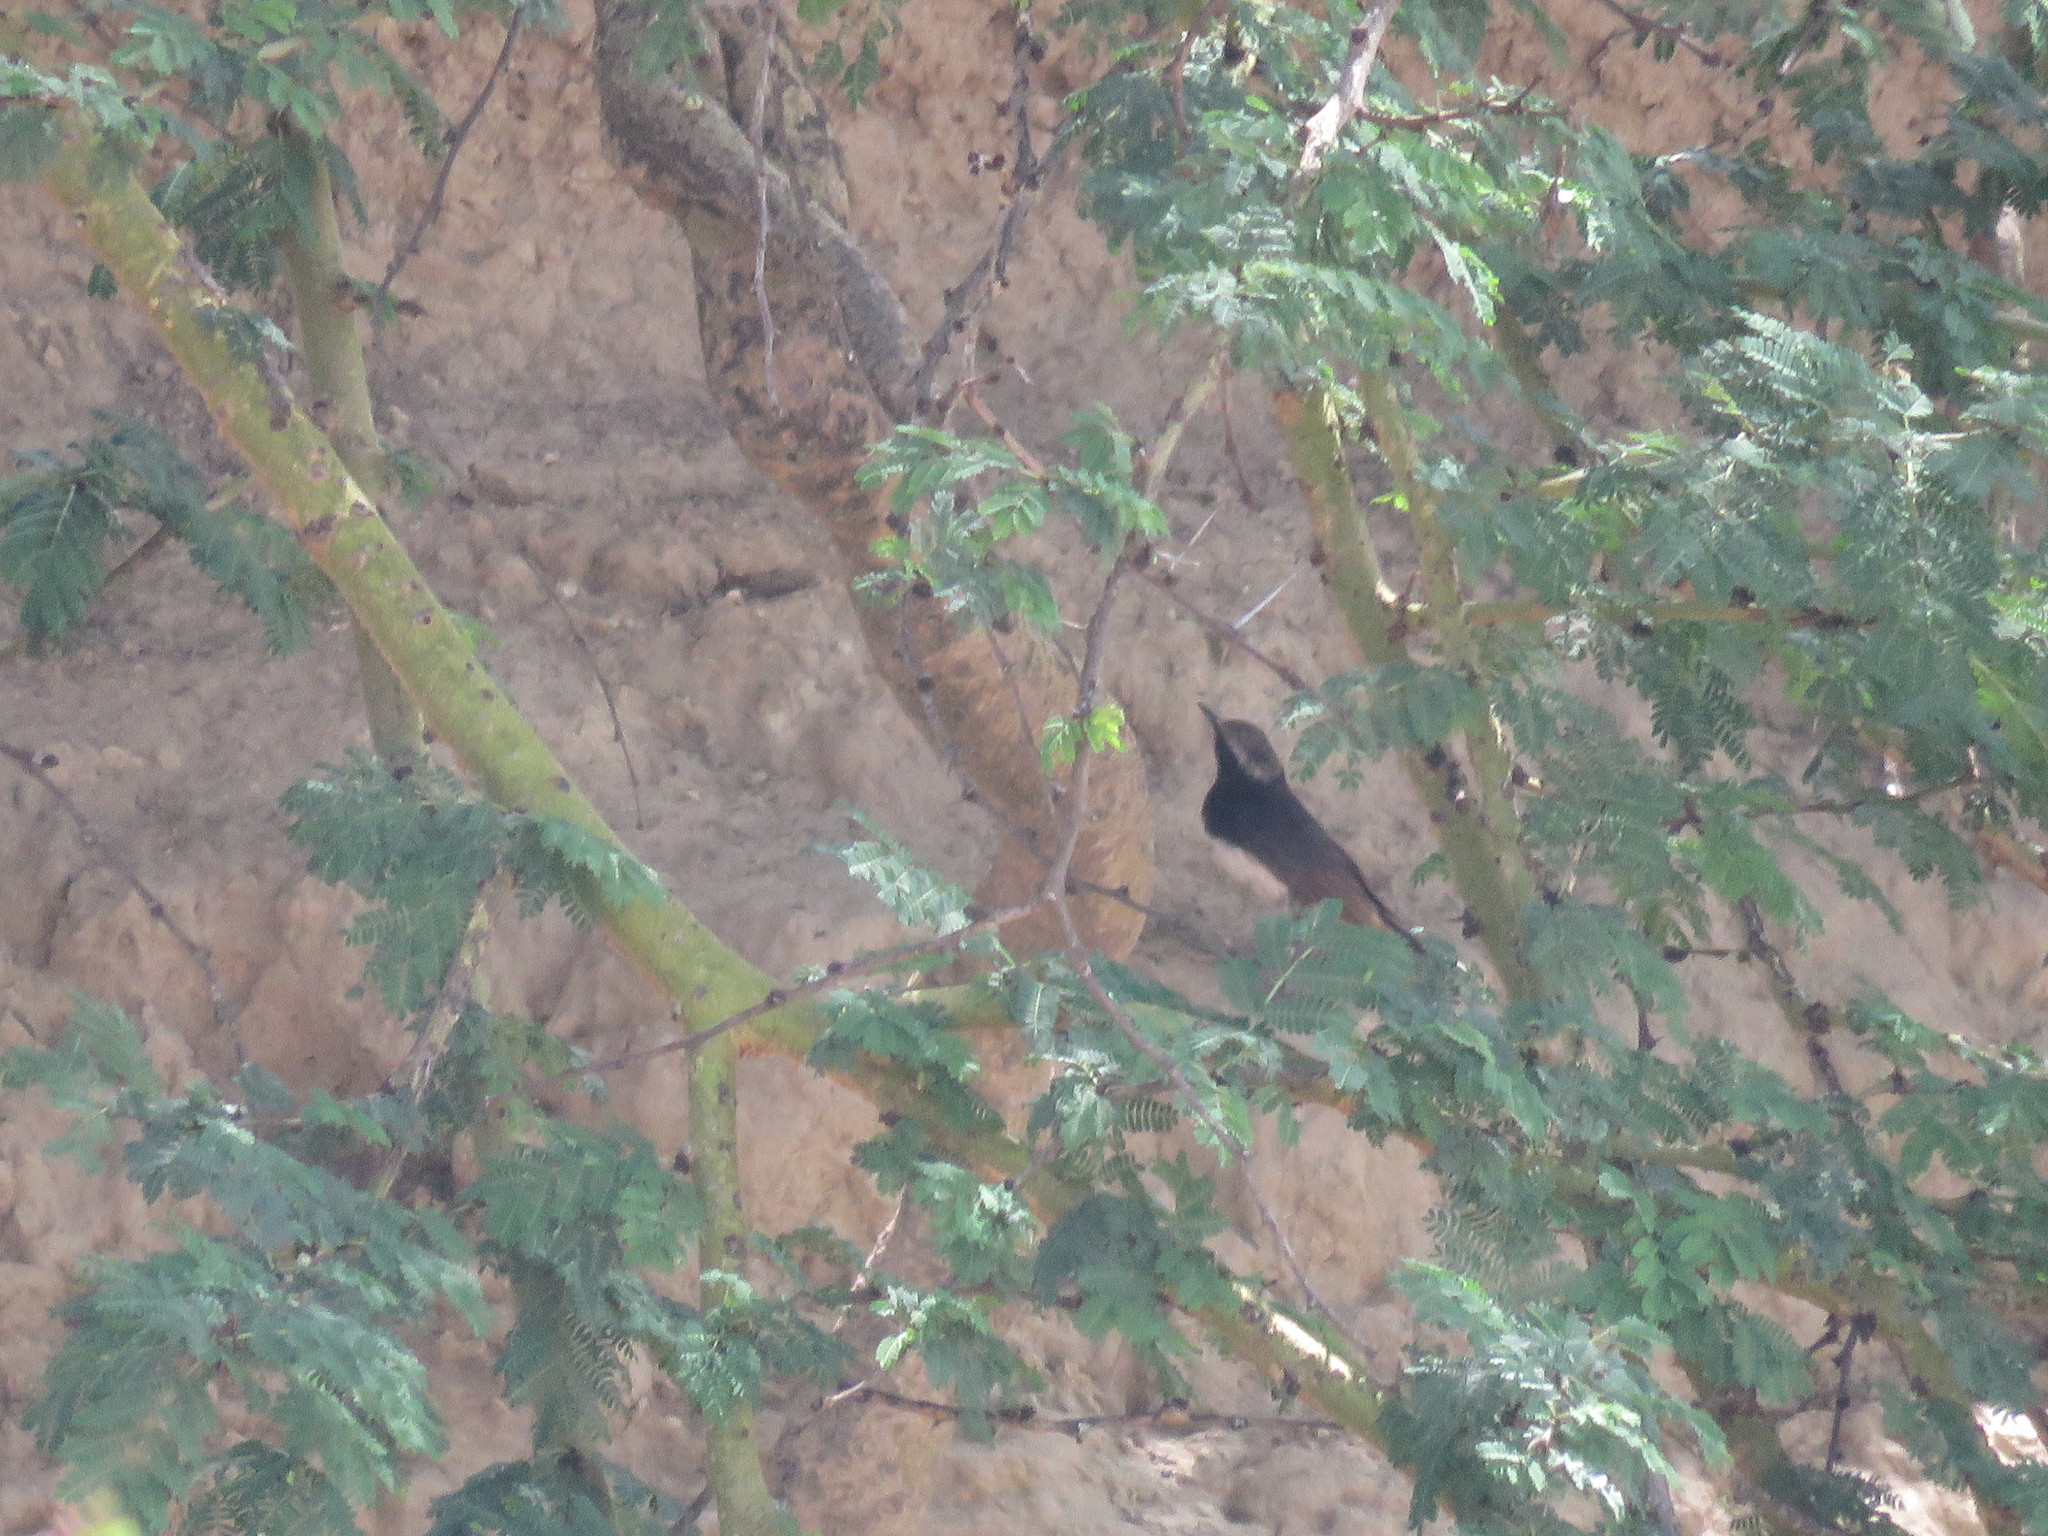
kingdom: Animalia
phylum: Chordata
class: Aves
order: Passeriformes
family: Muscicapidae
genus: Oenanthe
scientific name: Oenanthe lugubris
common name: Abyssinian wheatear
